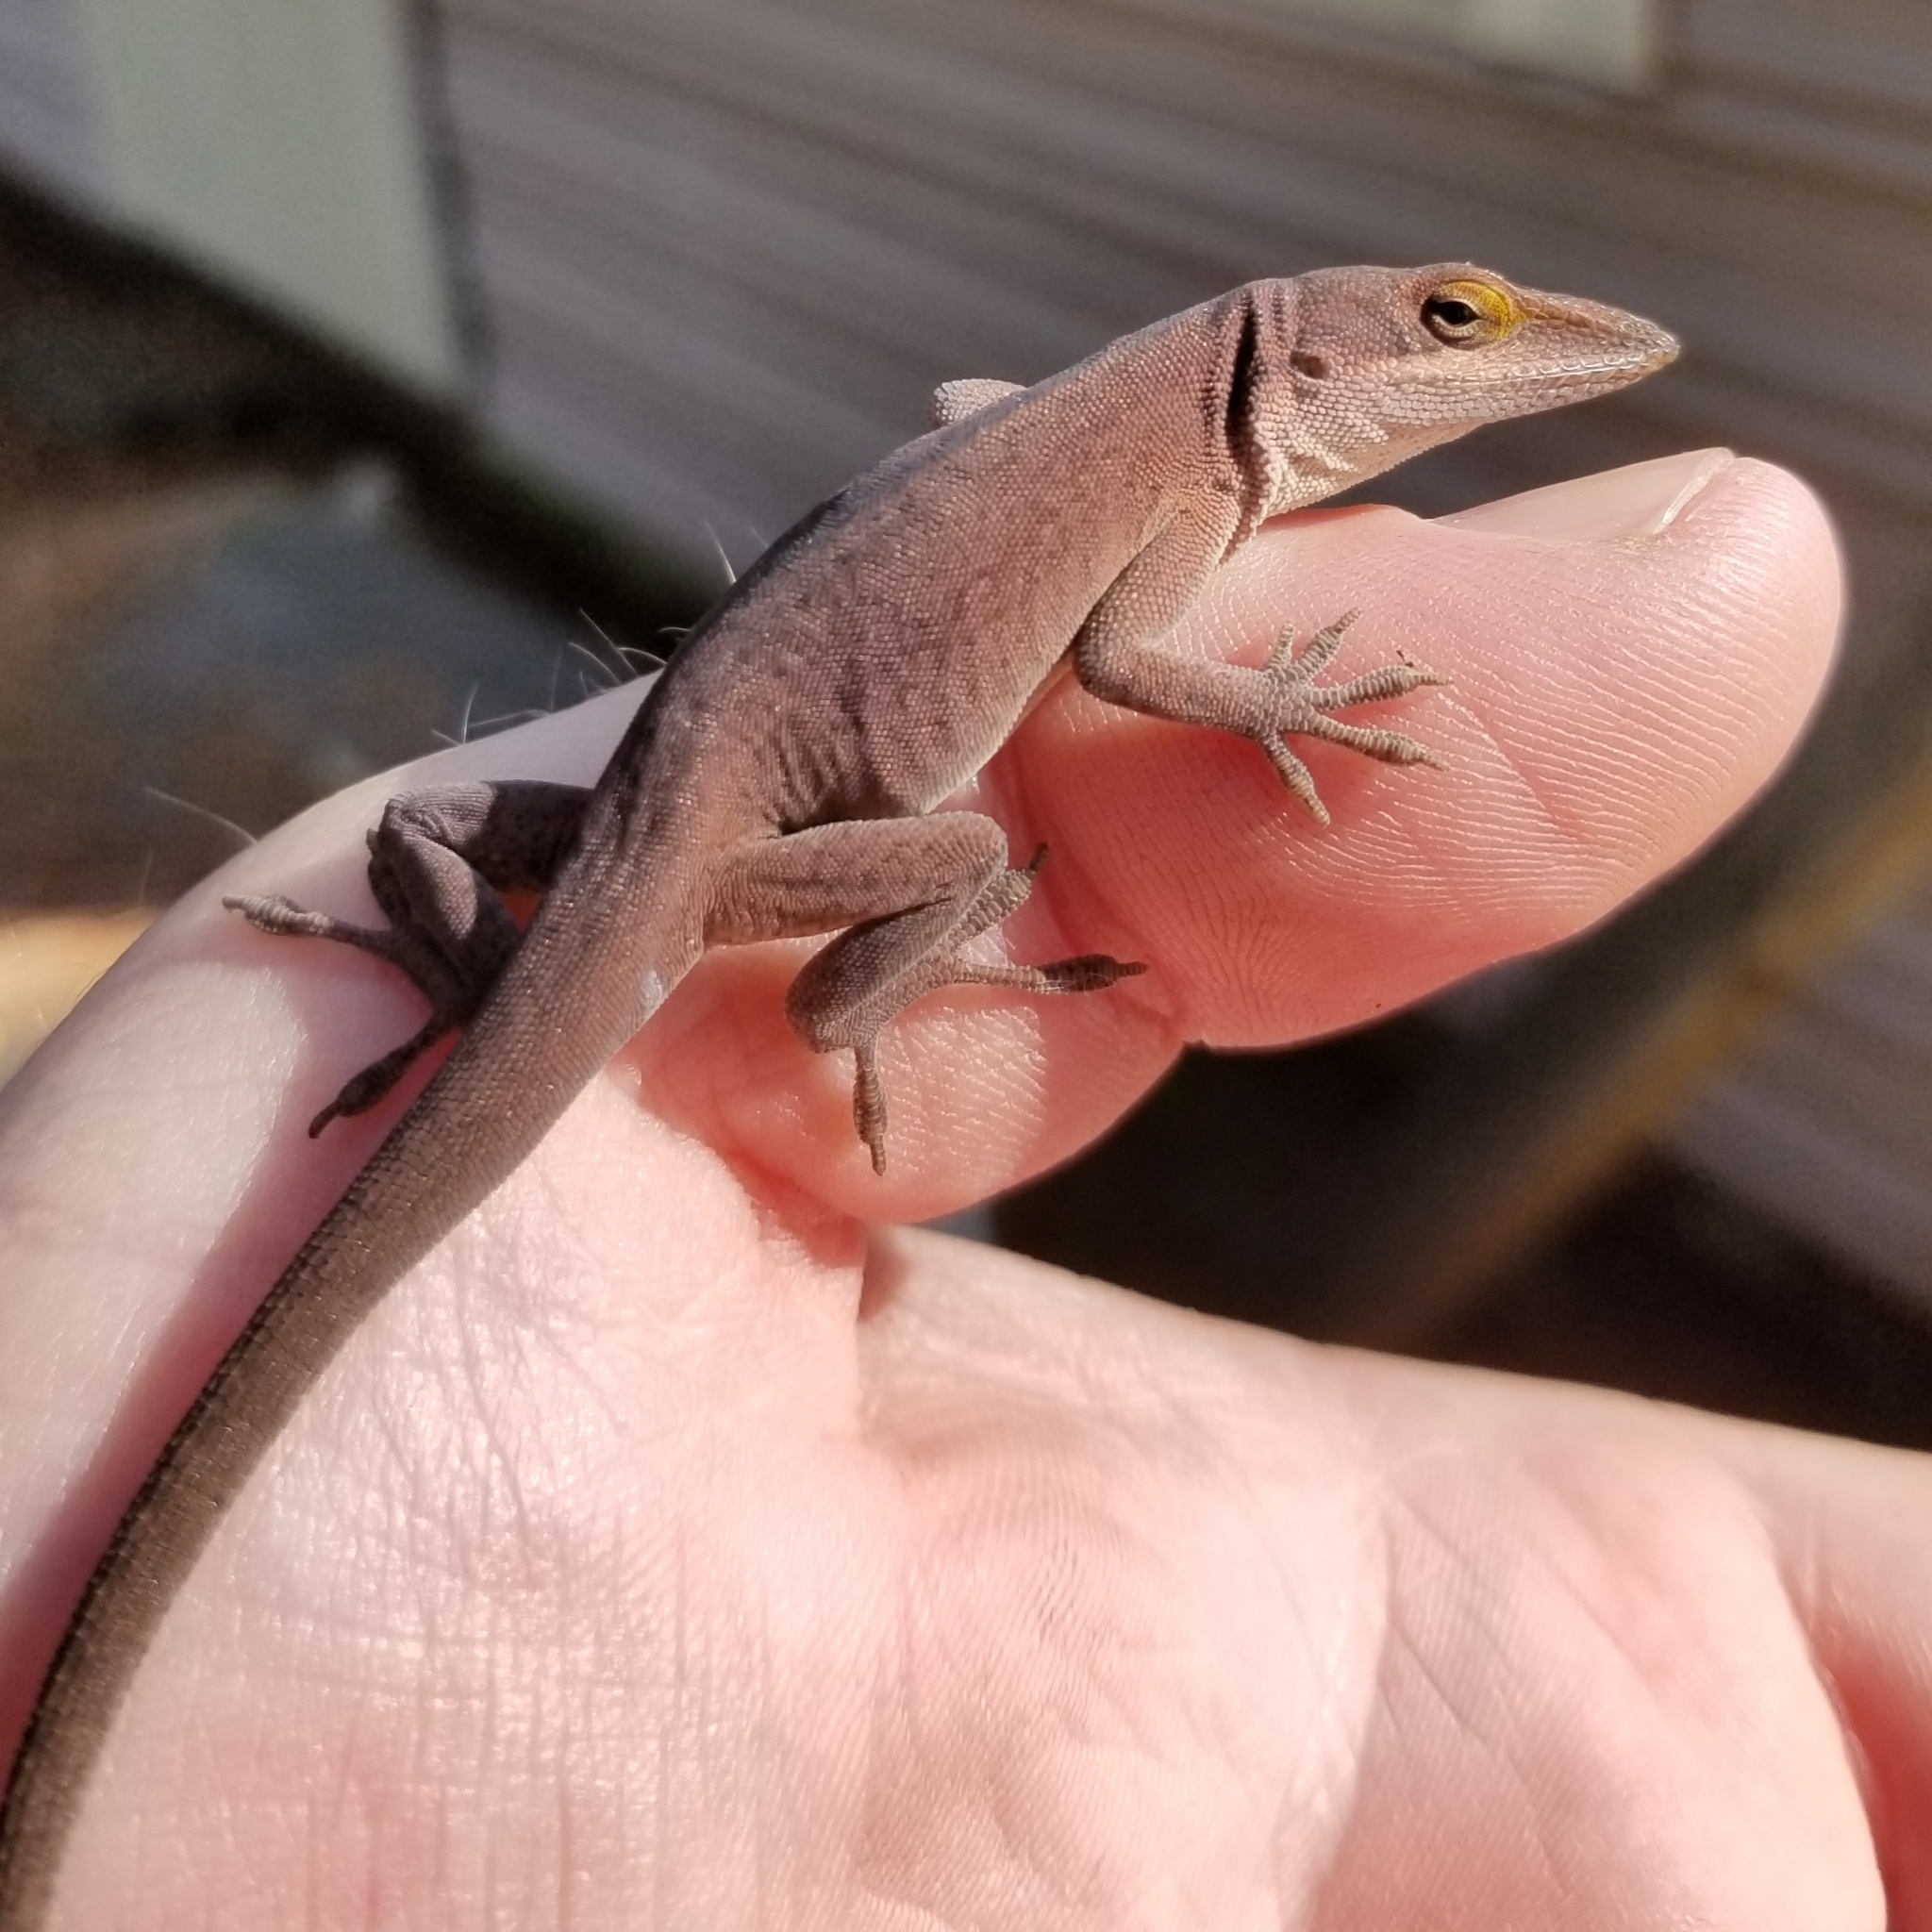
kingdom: Animalia
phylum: Chordata
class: Squamata
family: Dactyloidae
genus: Anolis
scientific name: Anolis carolinensis
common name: Green anole
